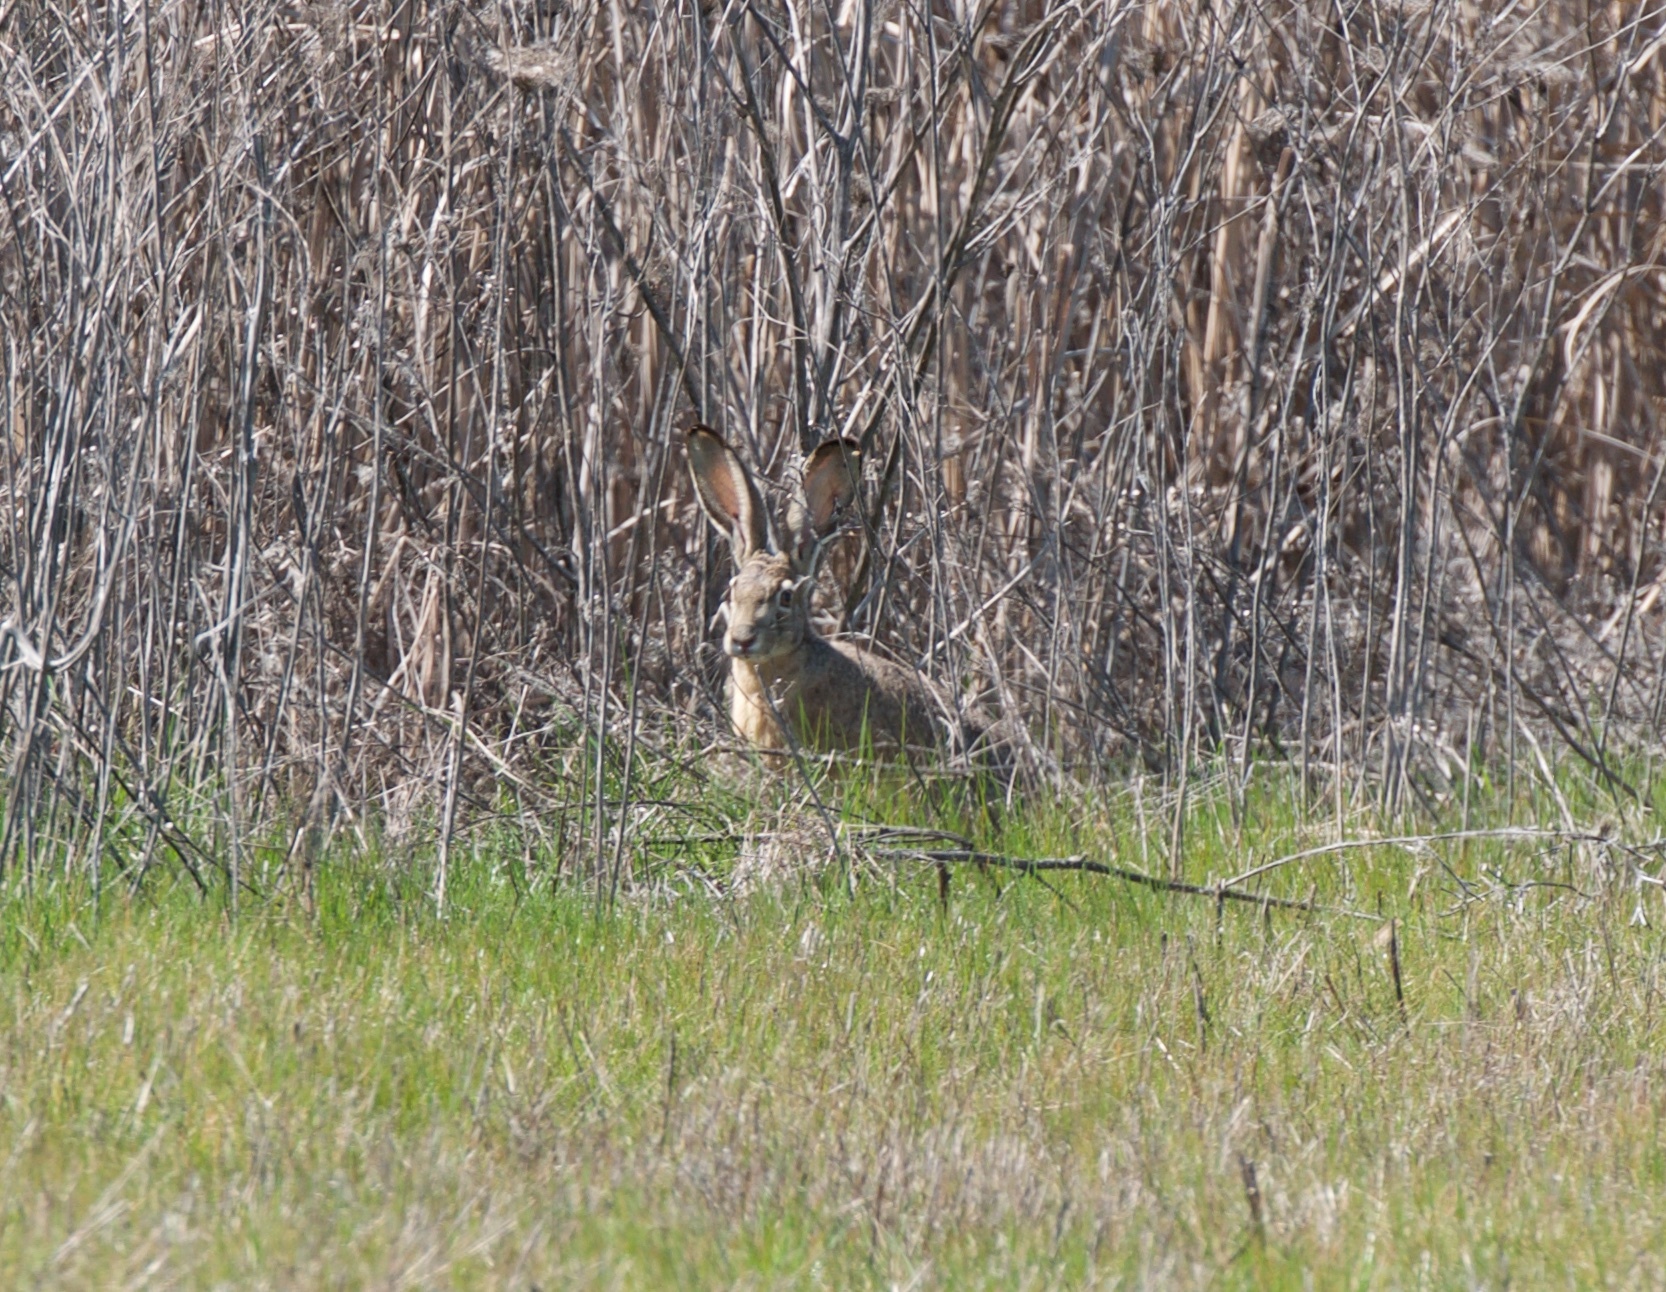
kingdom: Animalia
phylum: Chordata
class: Mammalia
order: Lagomorpha
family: Leporidae
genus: Lepus
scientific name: Lepus californicus
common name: Black-tailed jackrabbit
